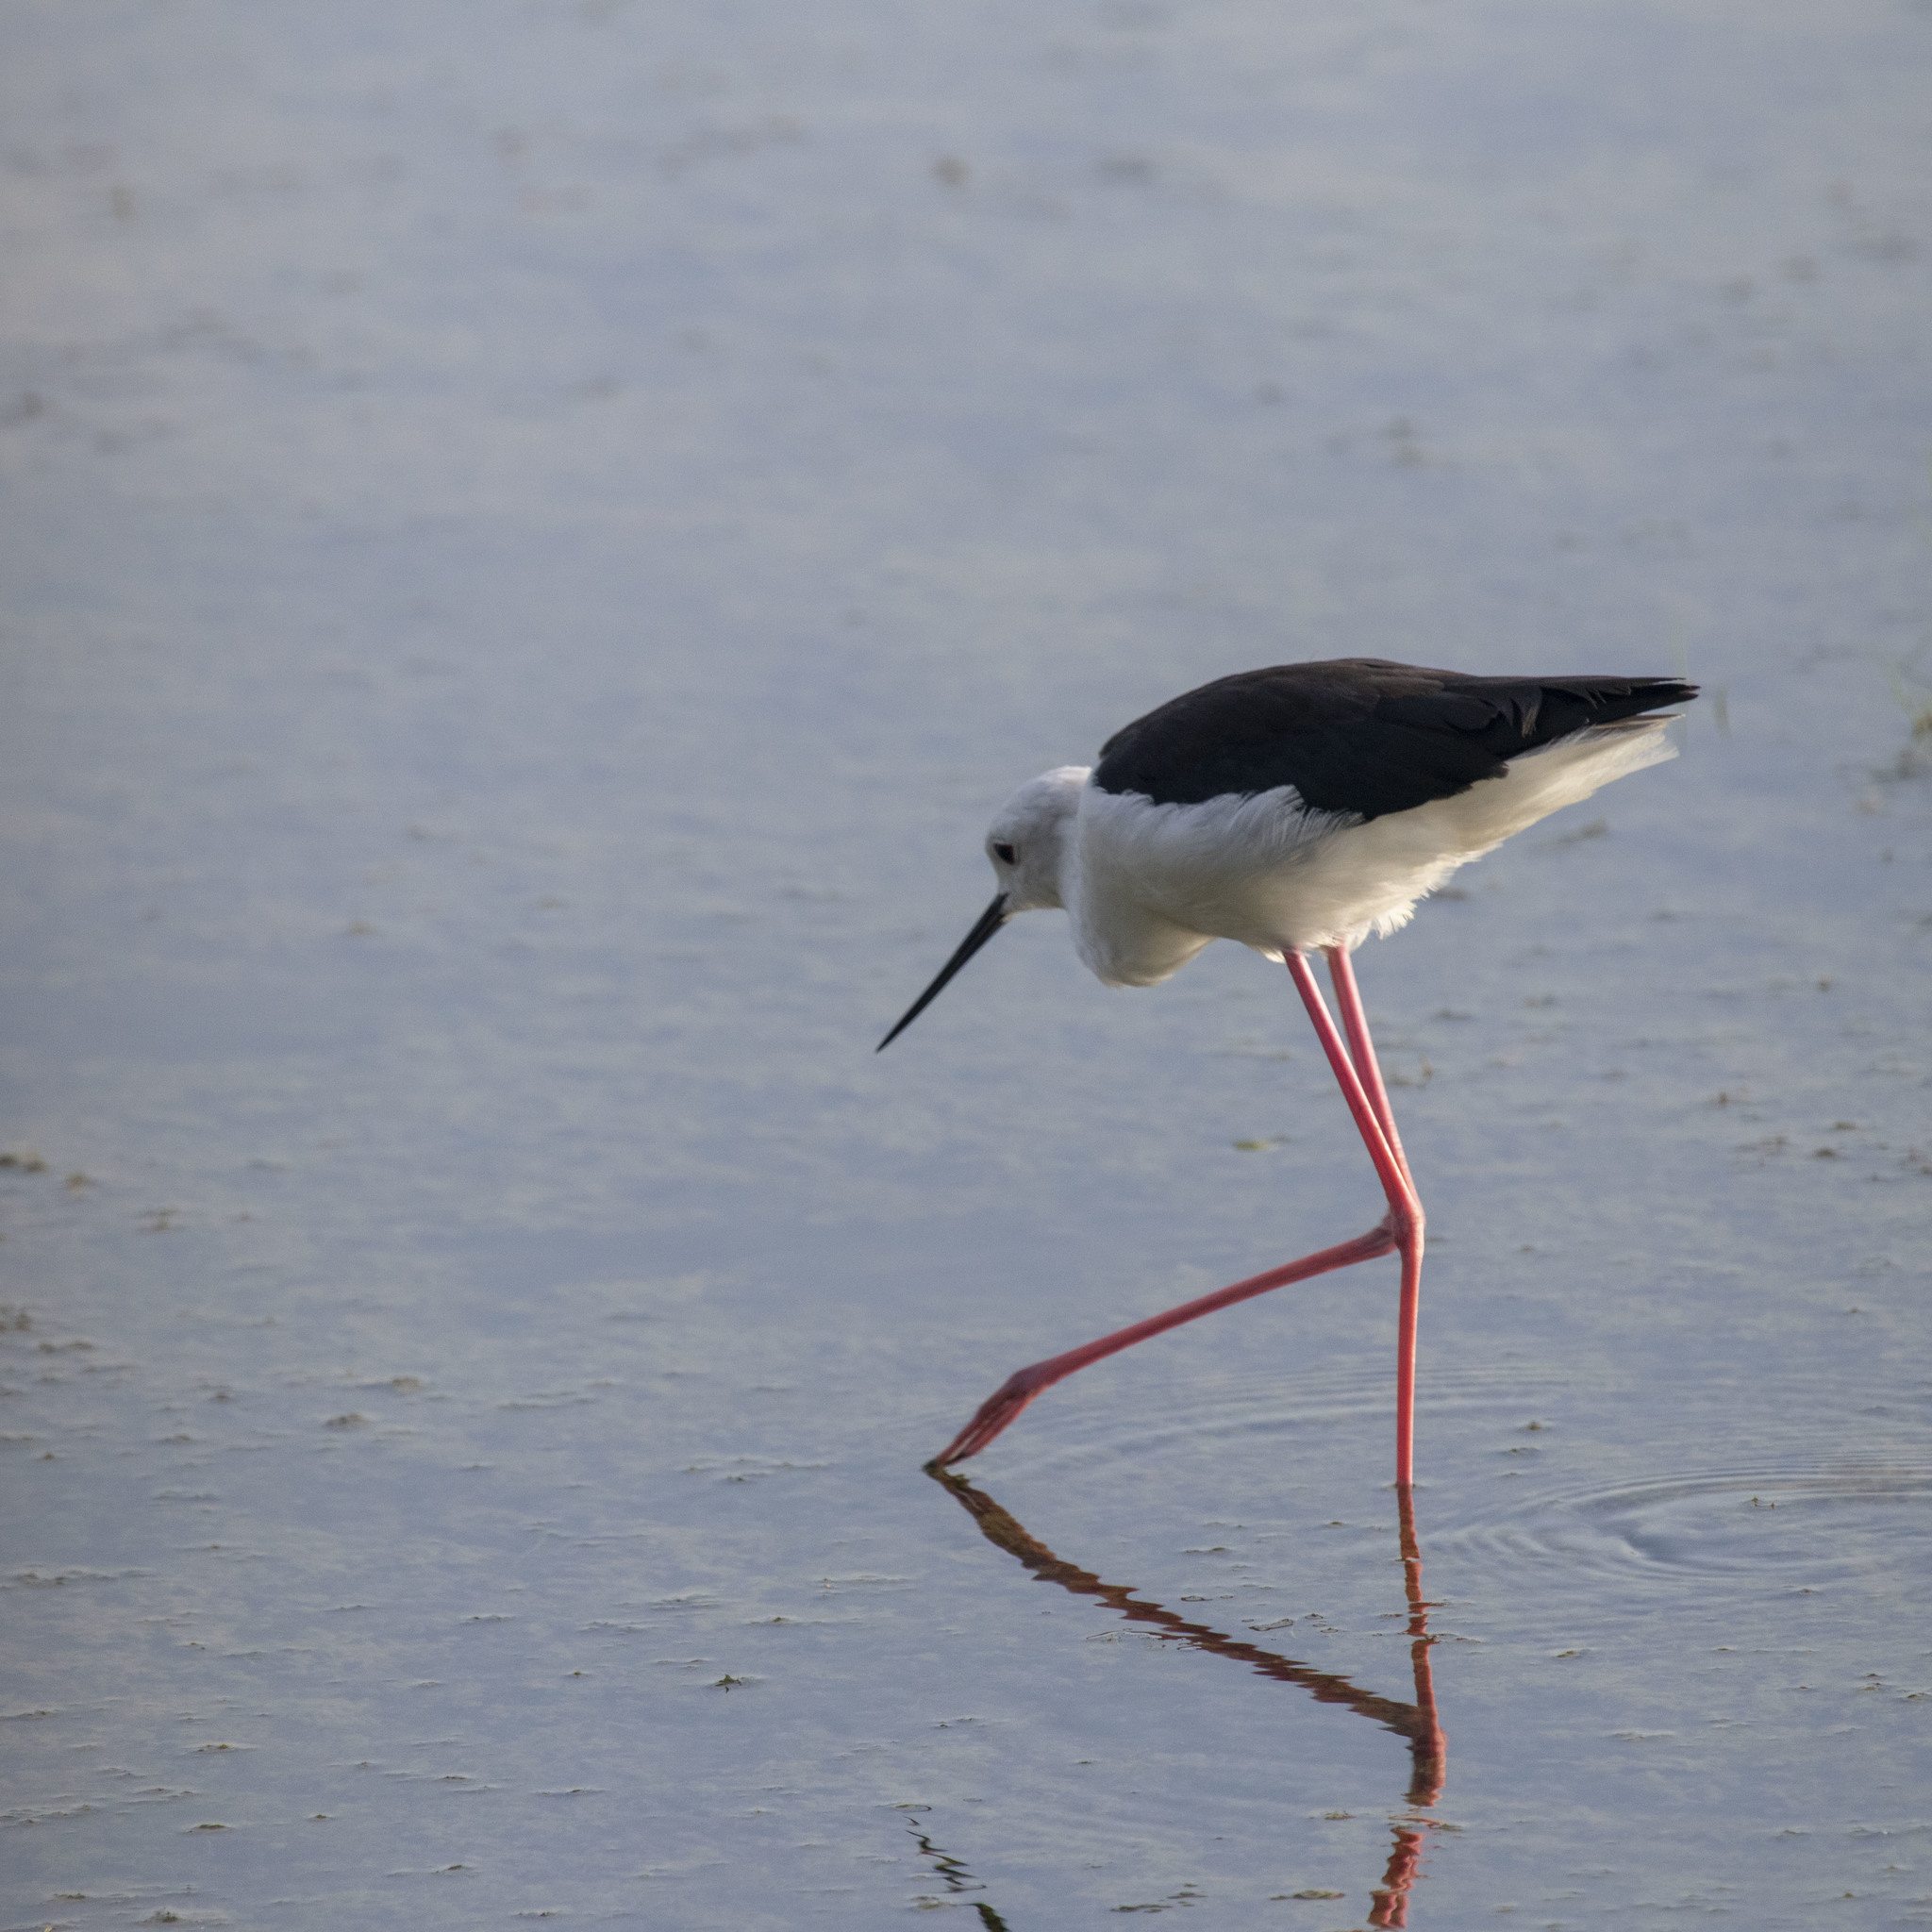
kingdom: Animalia
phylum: Chordata
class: Aves
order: Charadriiformes
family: Recurvirostridae
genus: Himantopus
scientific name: Himantopus himantopus
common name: Black-winged stilt
